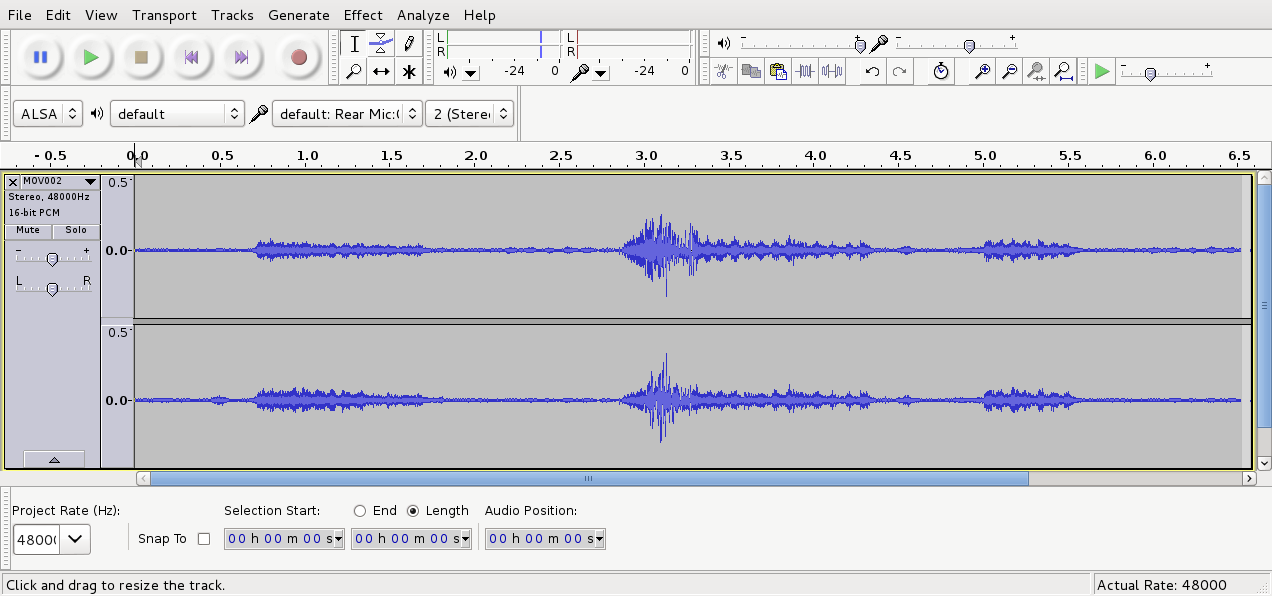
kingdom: Animalia
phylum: Chordata
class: Aves
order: Psittaciformes
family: Psittacidae
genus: Cyanoramphus
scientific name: Cyanoramphus novaezelandiae
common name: Red-fronted parakeet
